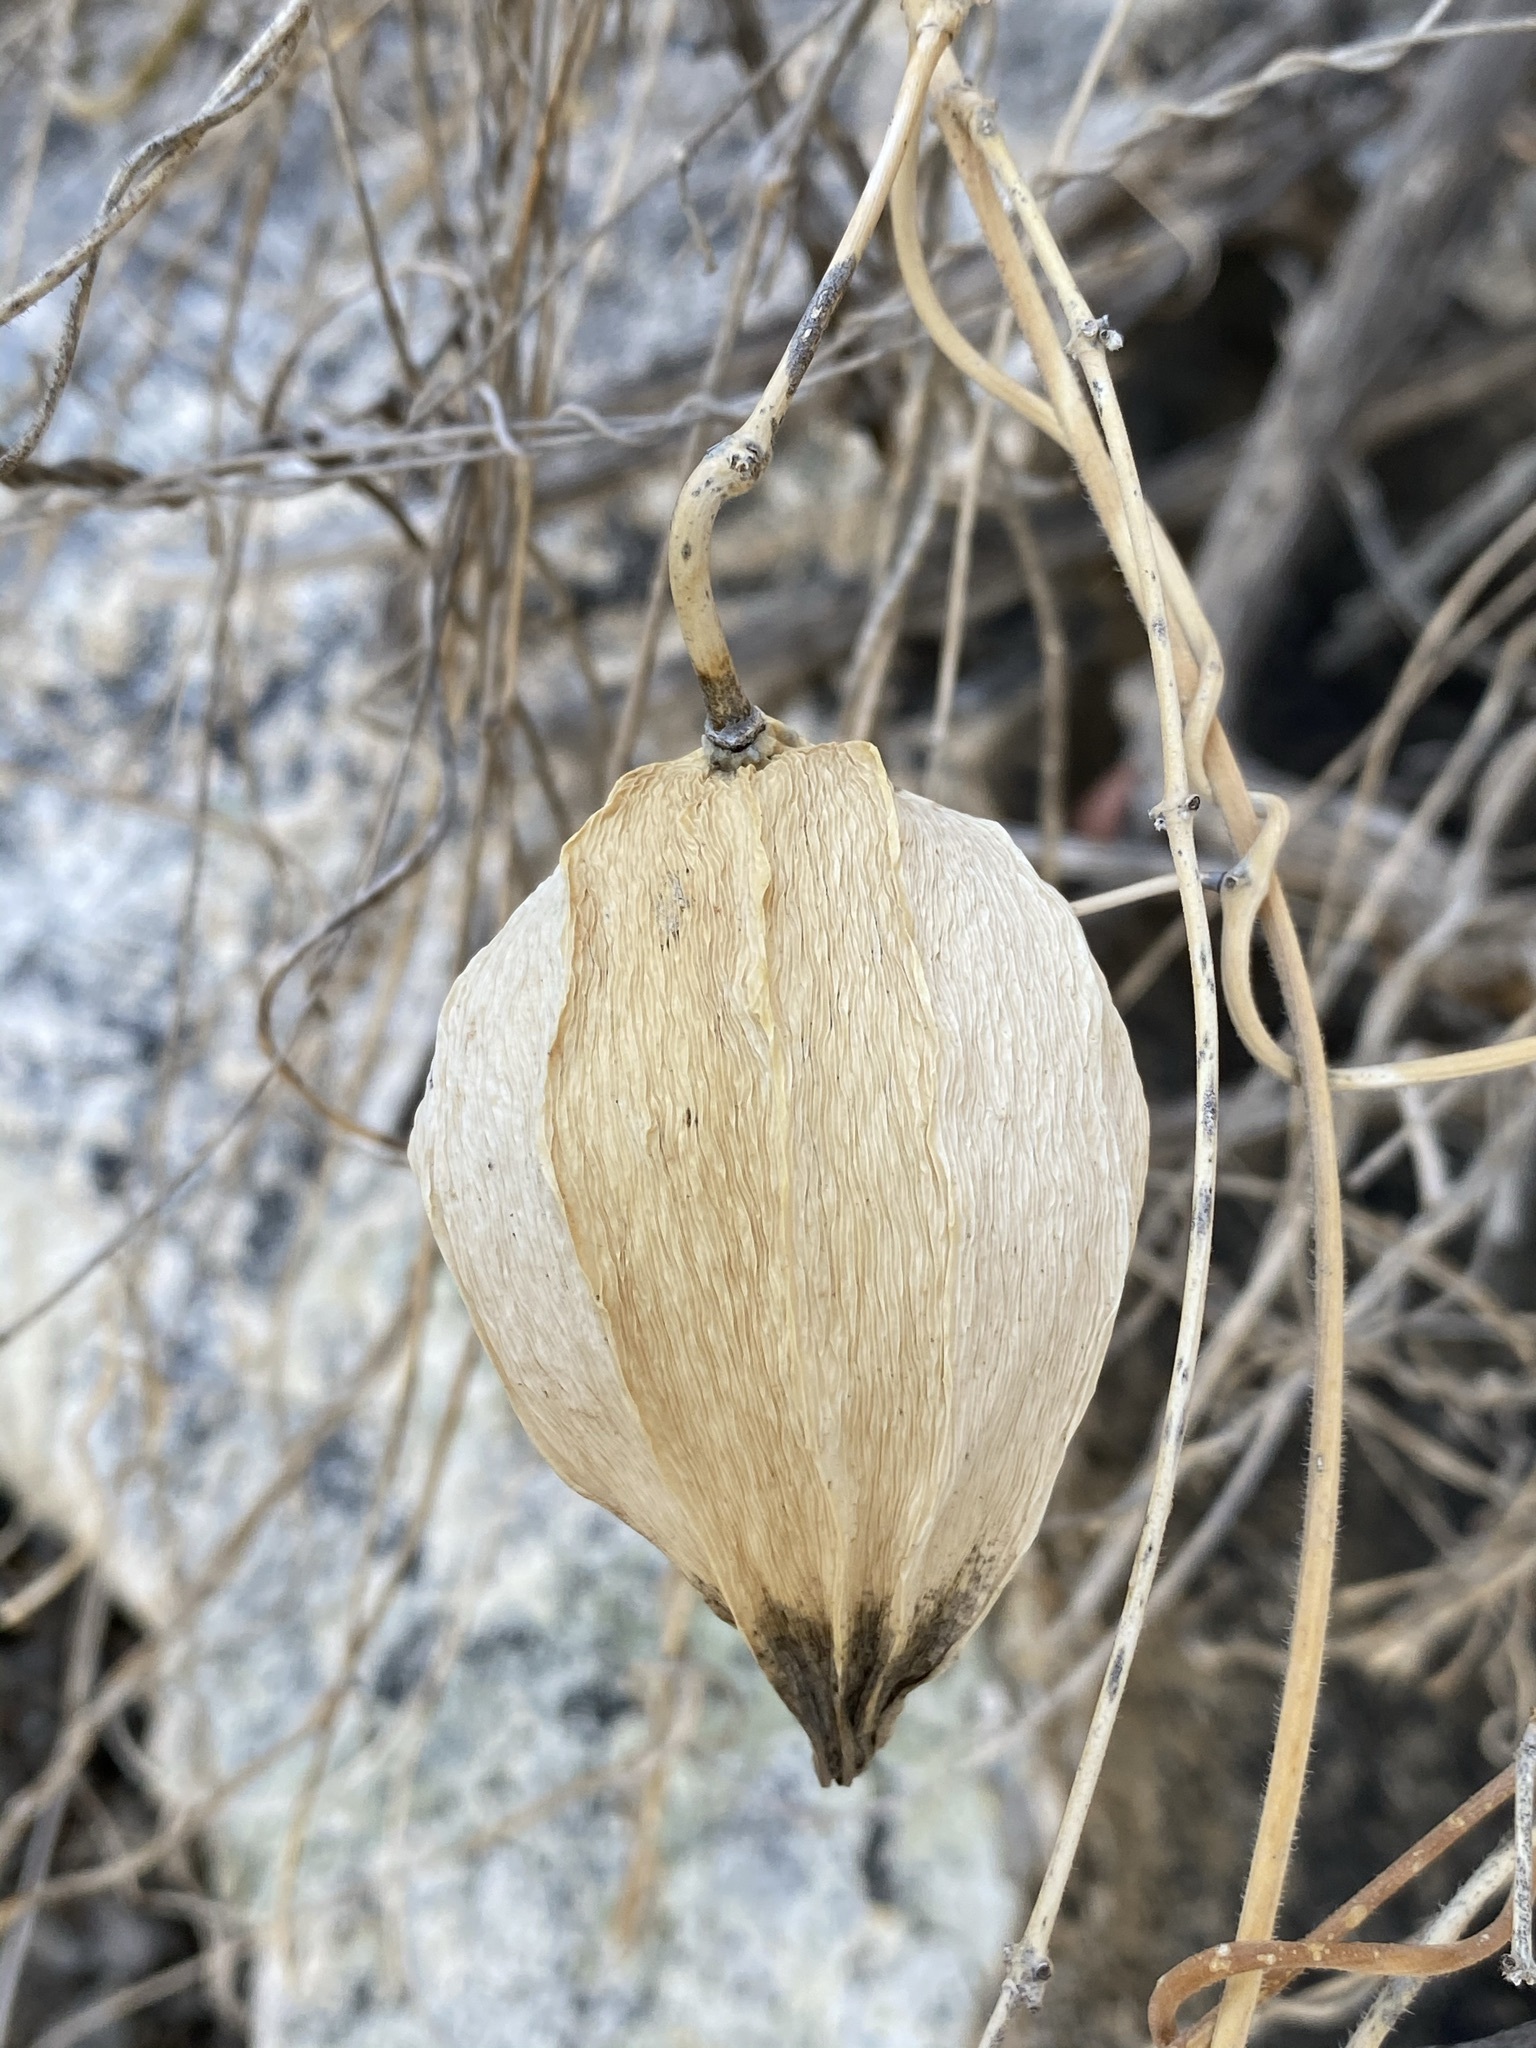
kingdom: Plantae
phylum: Tracheophyta
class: Magnoliopsida
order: Gentianales
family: Apocynaceae
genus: Gonolobus
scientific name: Gonolobus arizonicus
